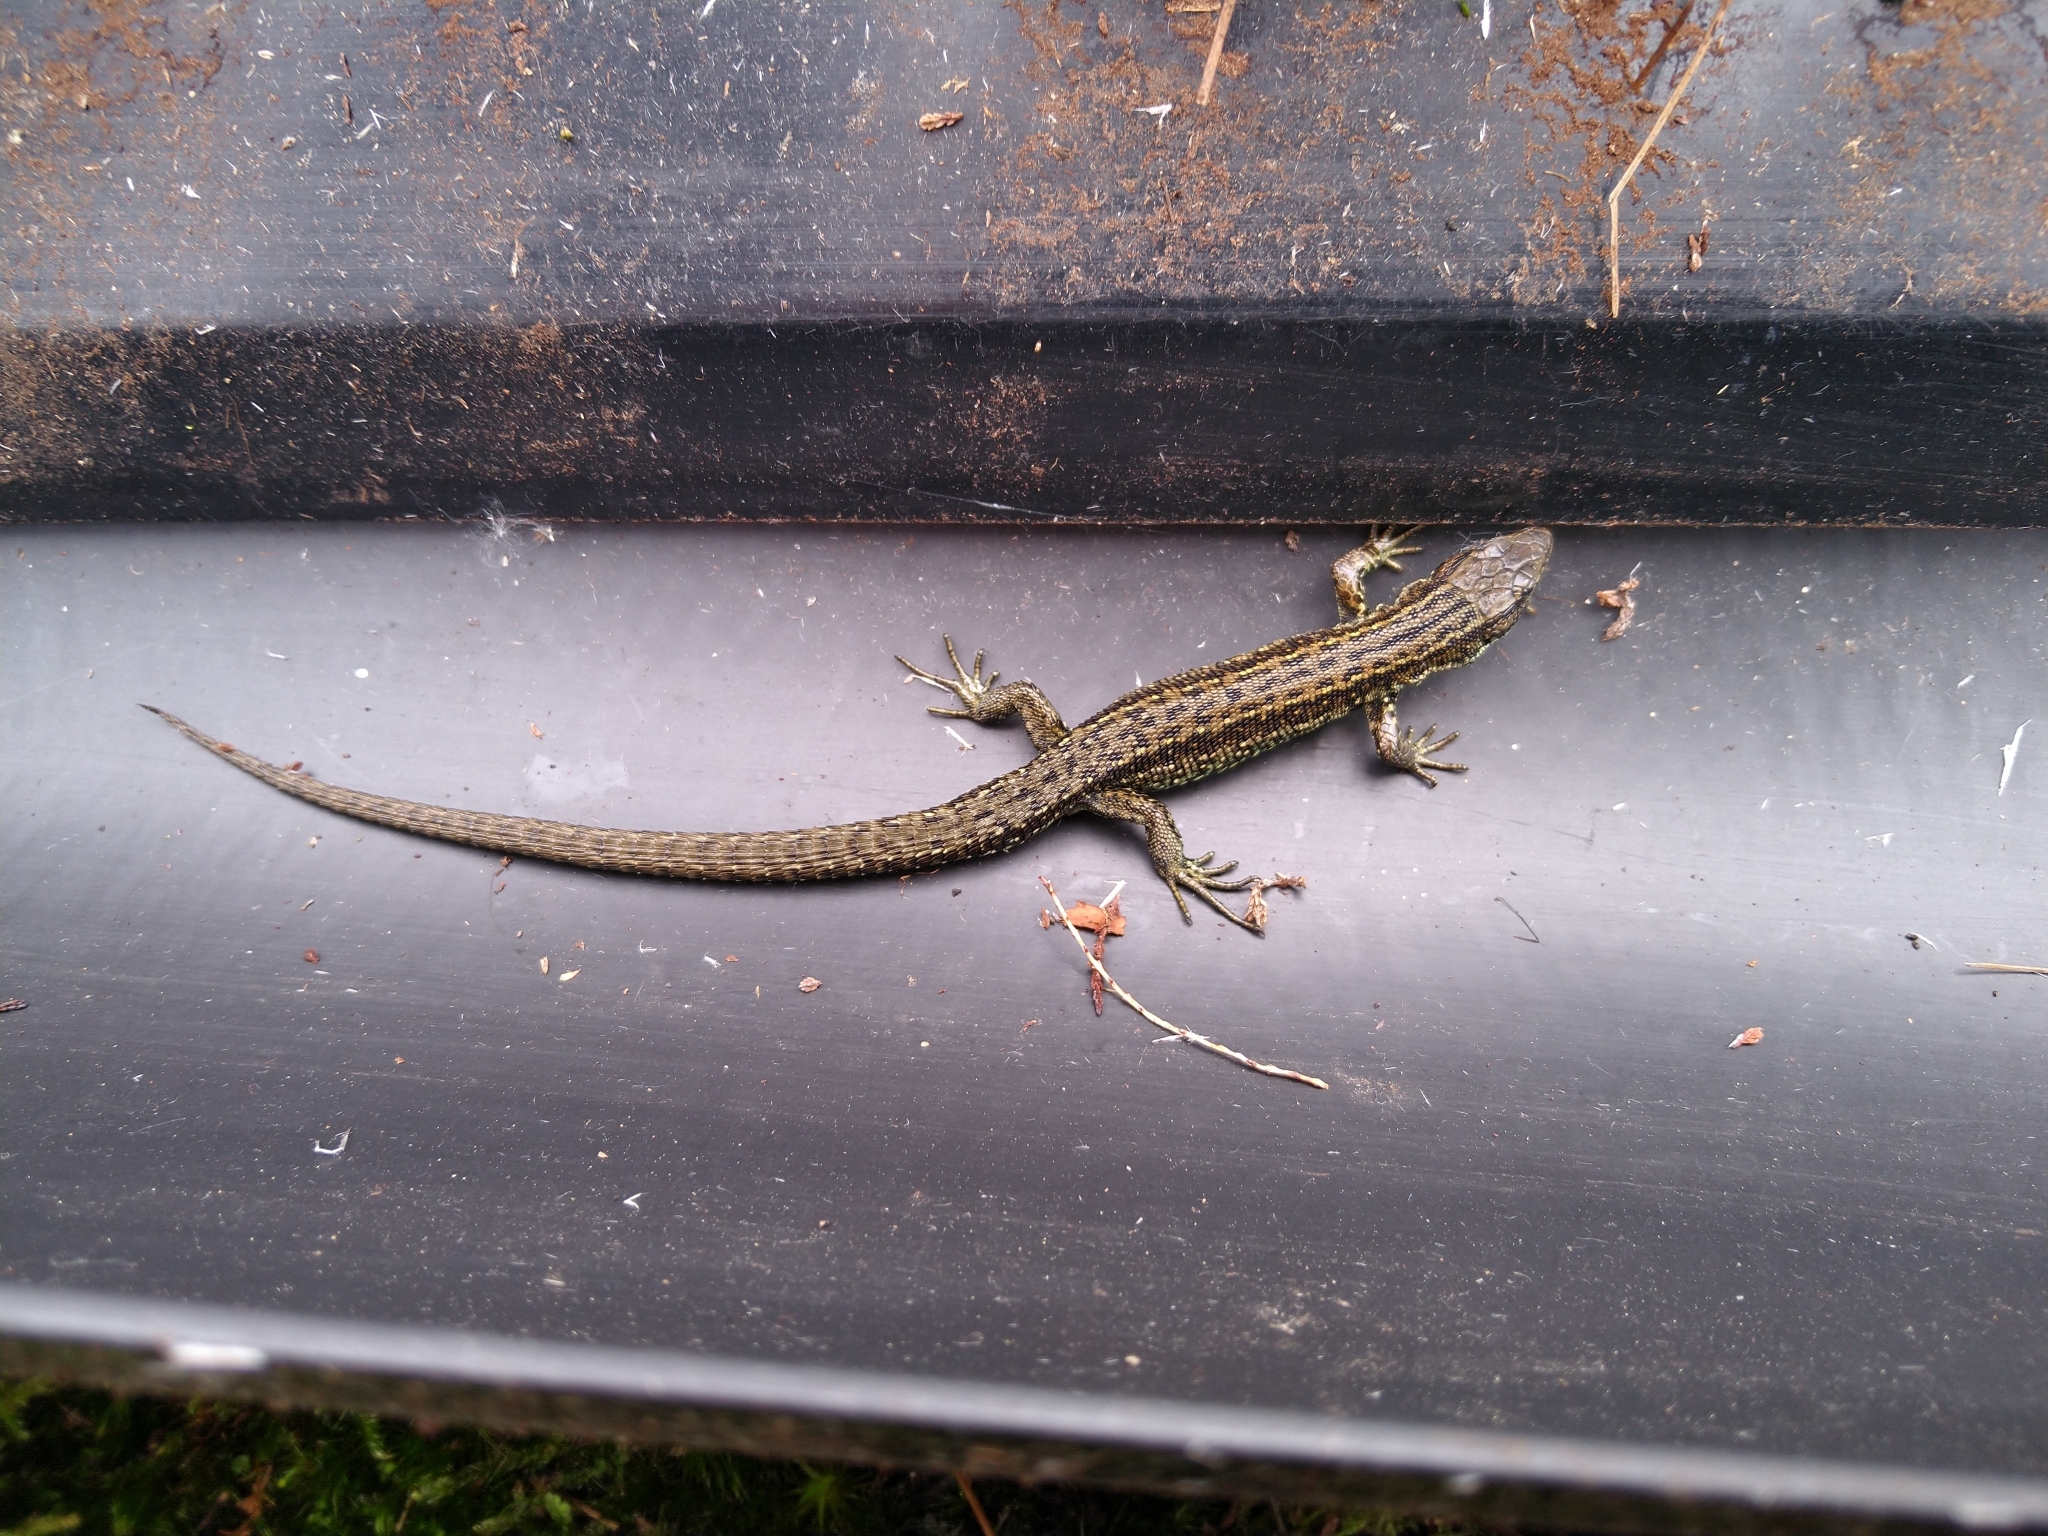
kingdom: Animalia
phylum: Chordata
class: Squamata
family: Lacertidae
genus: Zootoca
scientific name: Zootoca vivipara
